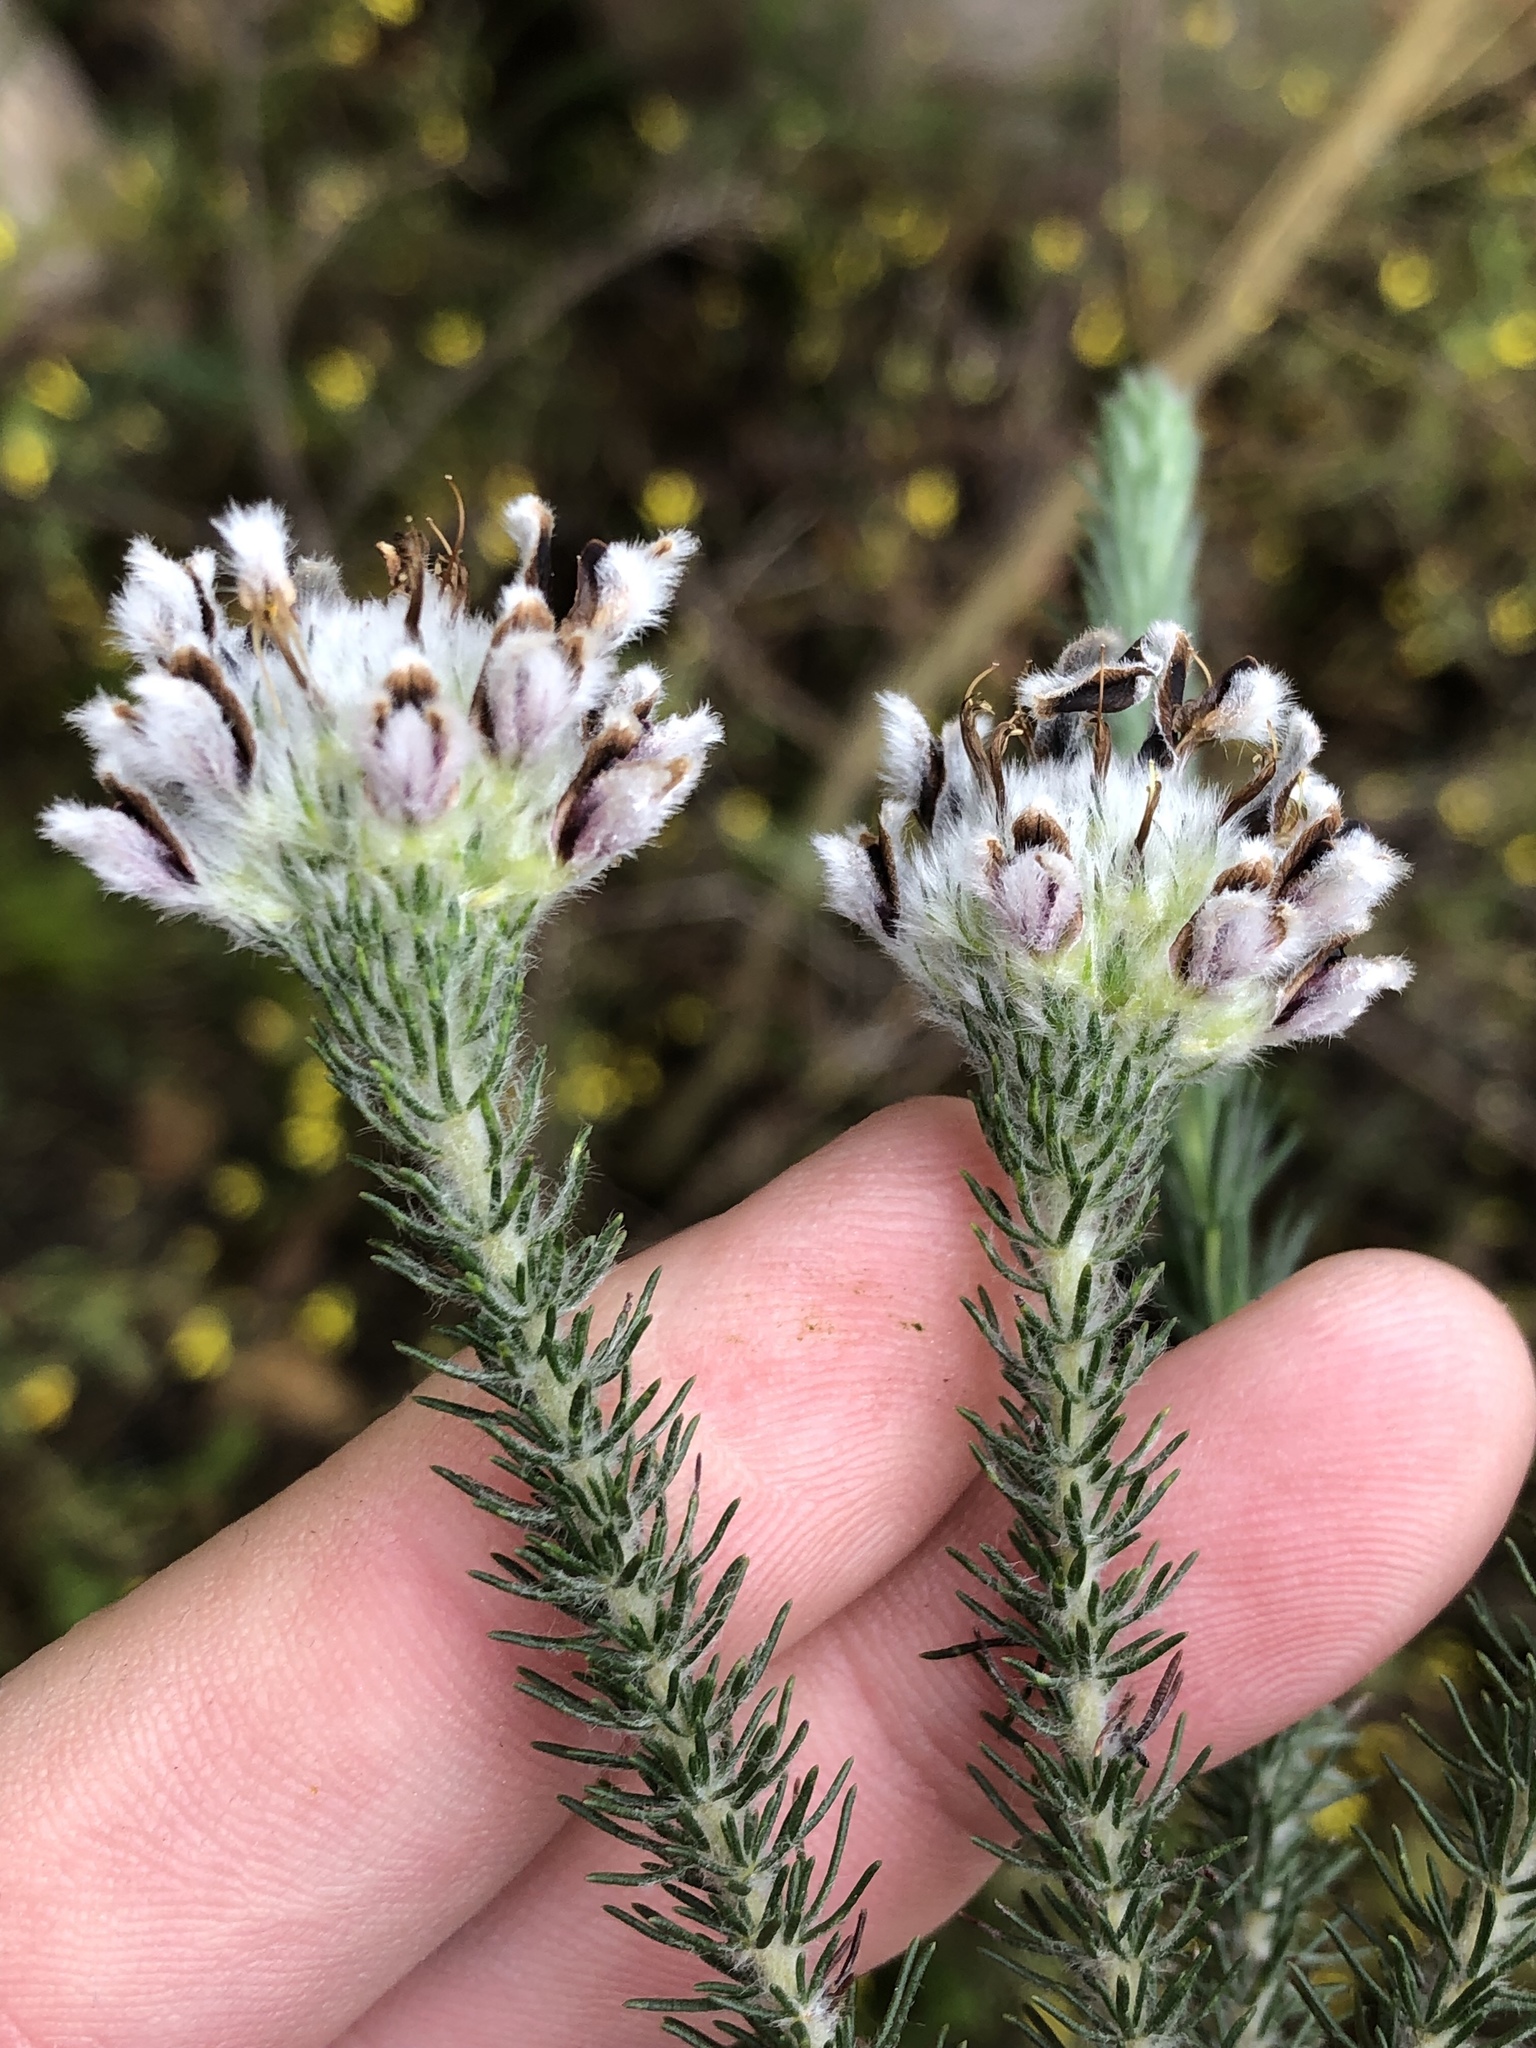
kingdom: Plantae
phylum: Tracheophyta
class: Magnoliopsida
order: Fabales
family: Fabaceae
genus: Aspalathus
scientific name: Aspalathus globosa
